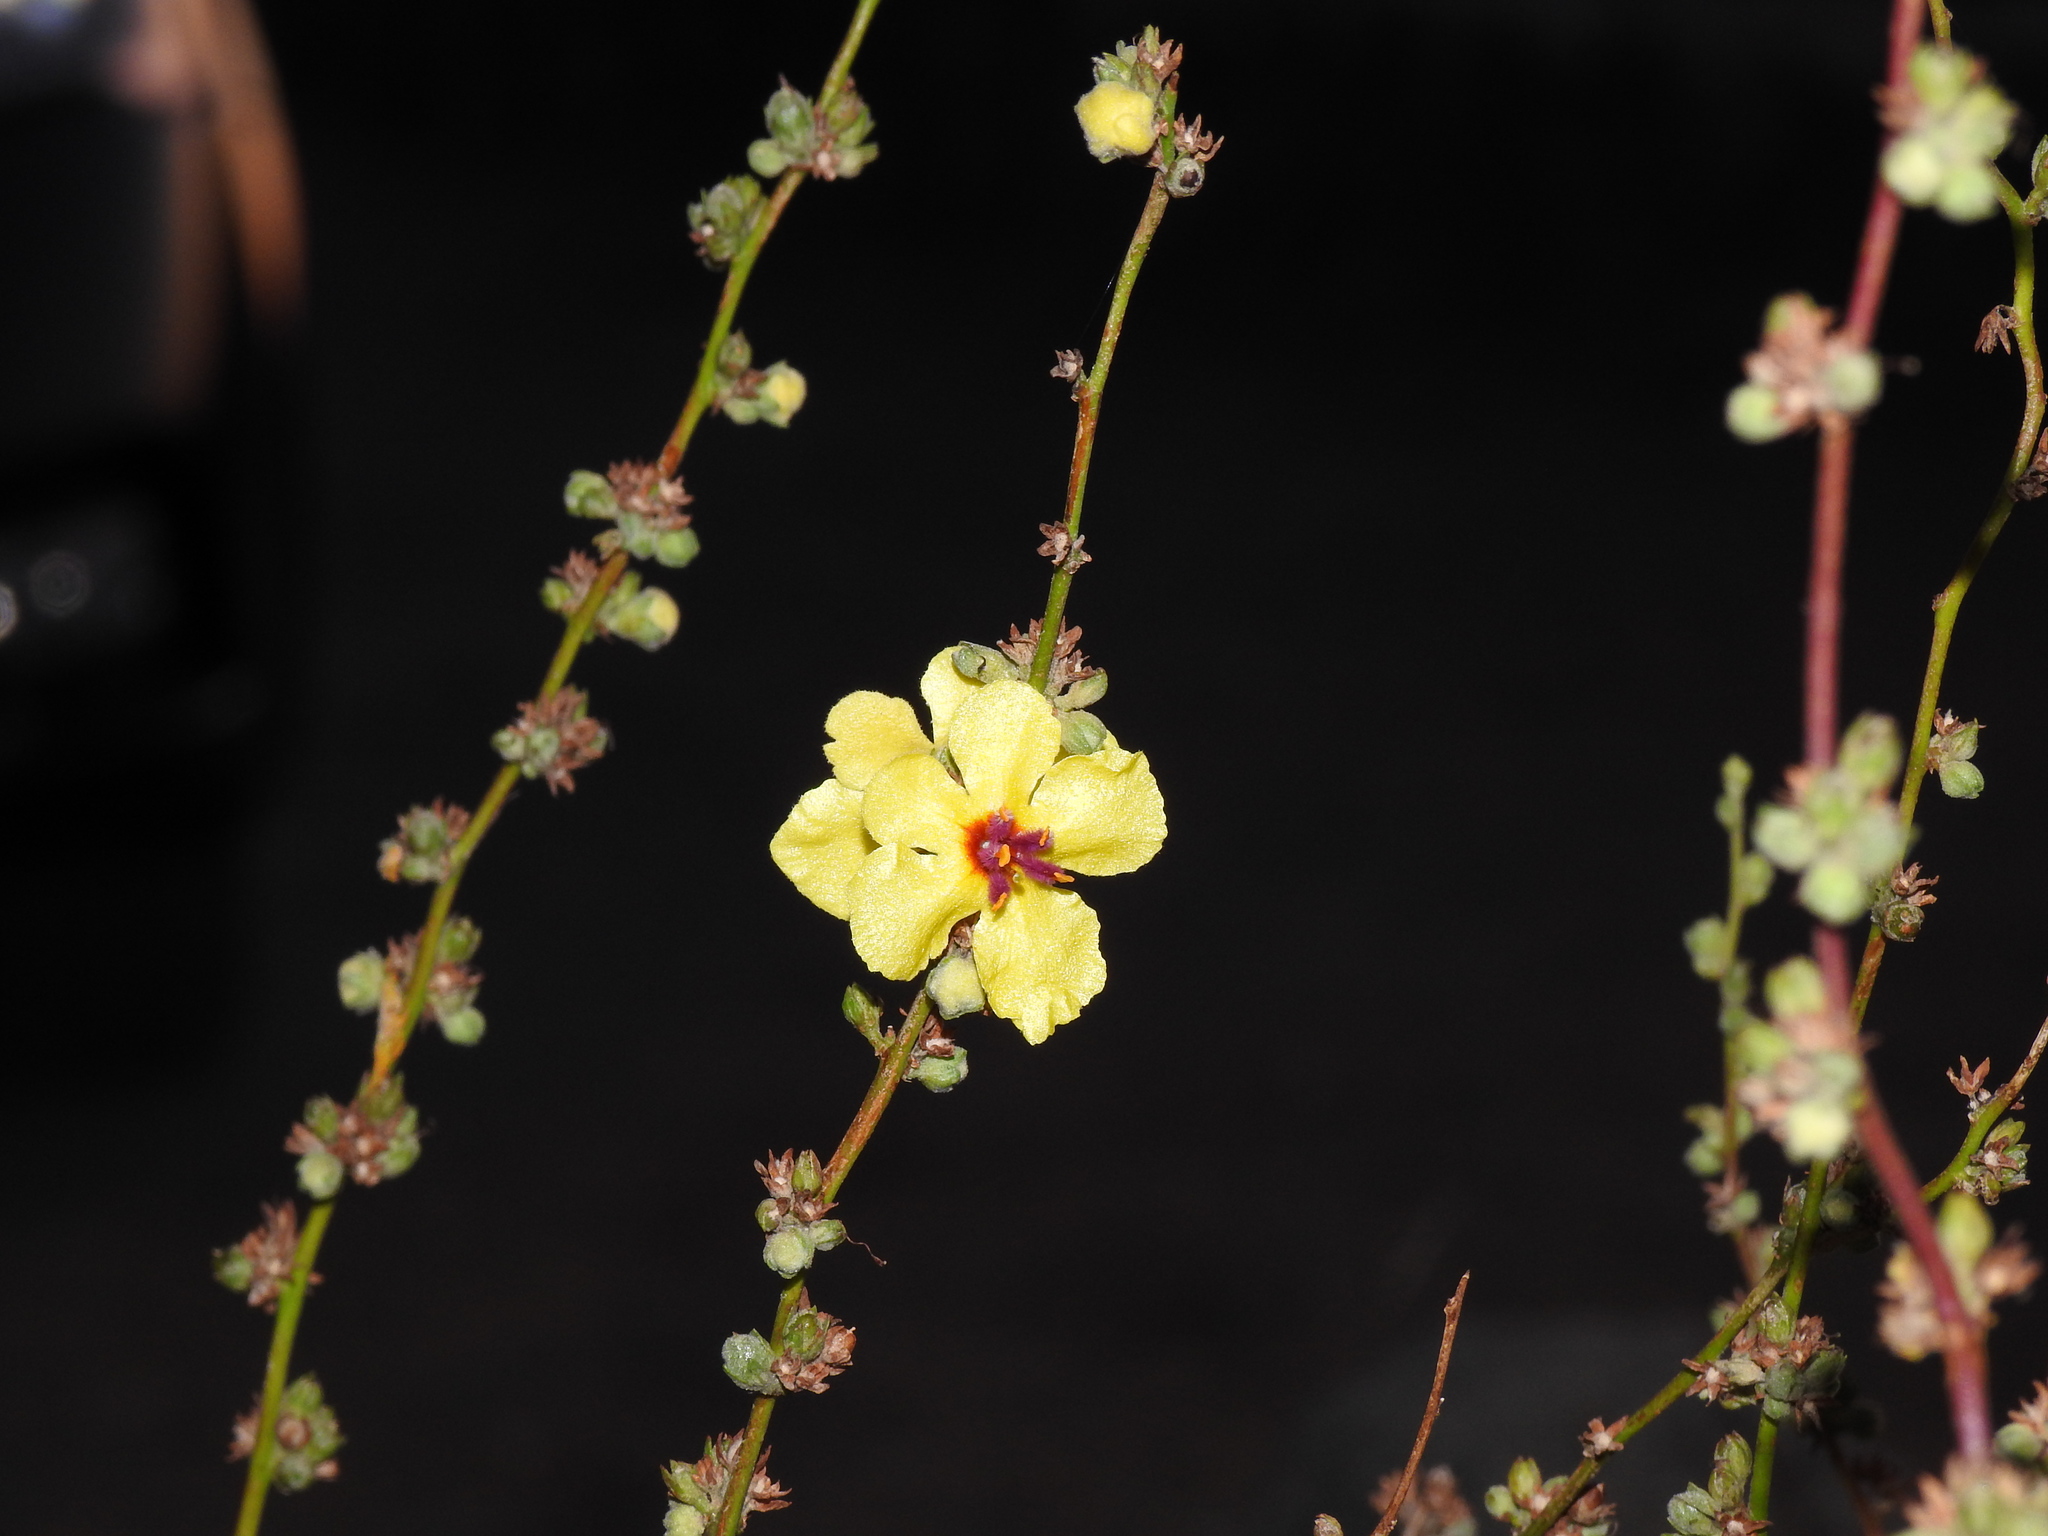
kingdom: Plantae
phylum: Tracheophyta
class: Magnoliopsida
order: Lamiales
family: Scrophulariaceae
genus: Verbascum
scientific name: Verbascum sinuatum
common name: Wavyleaf mullein
